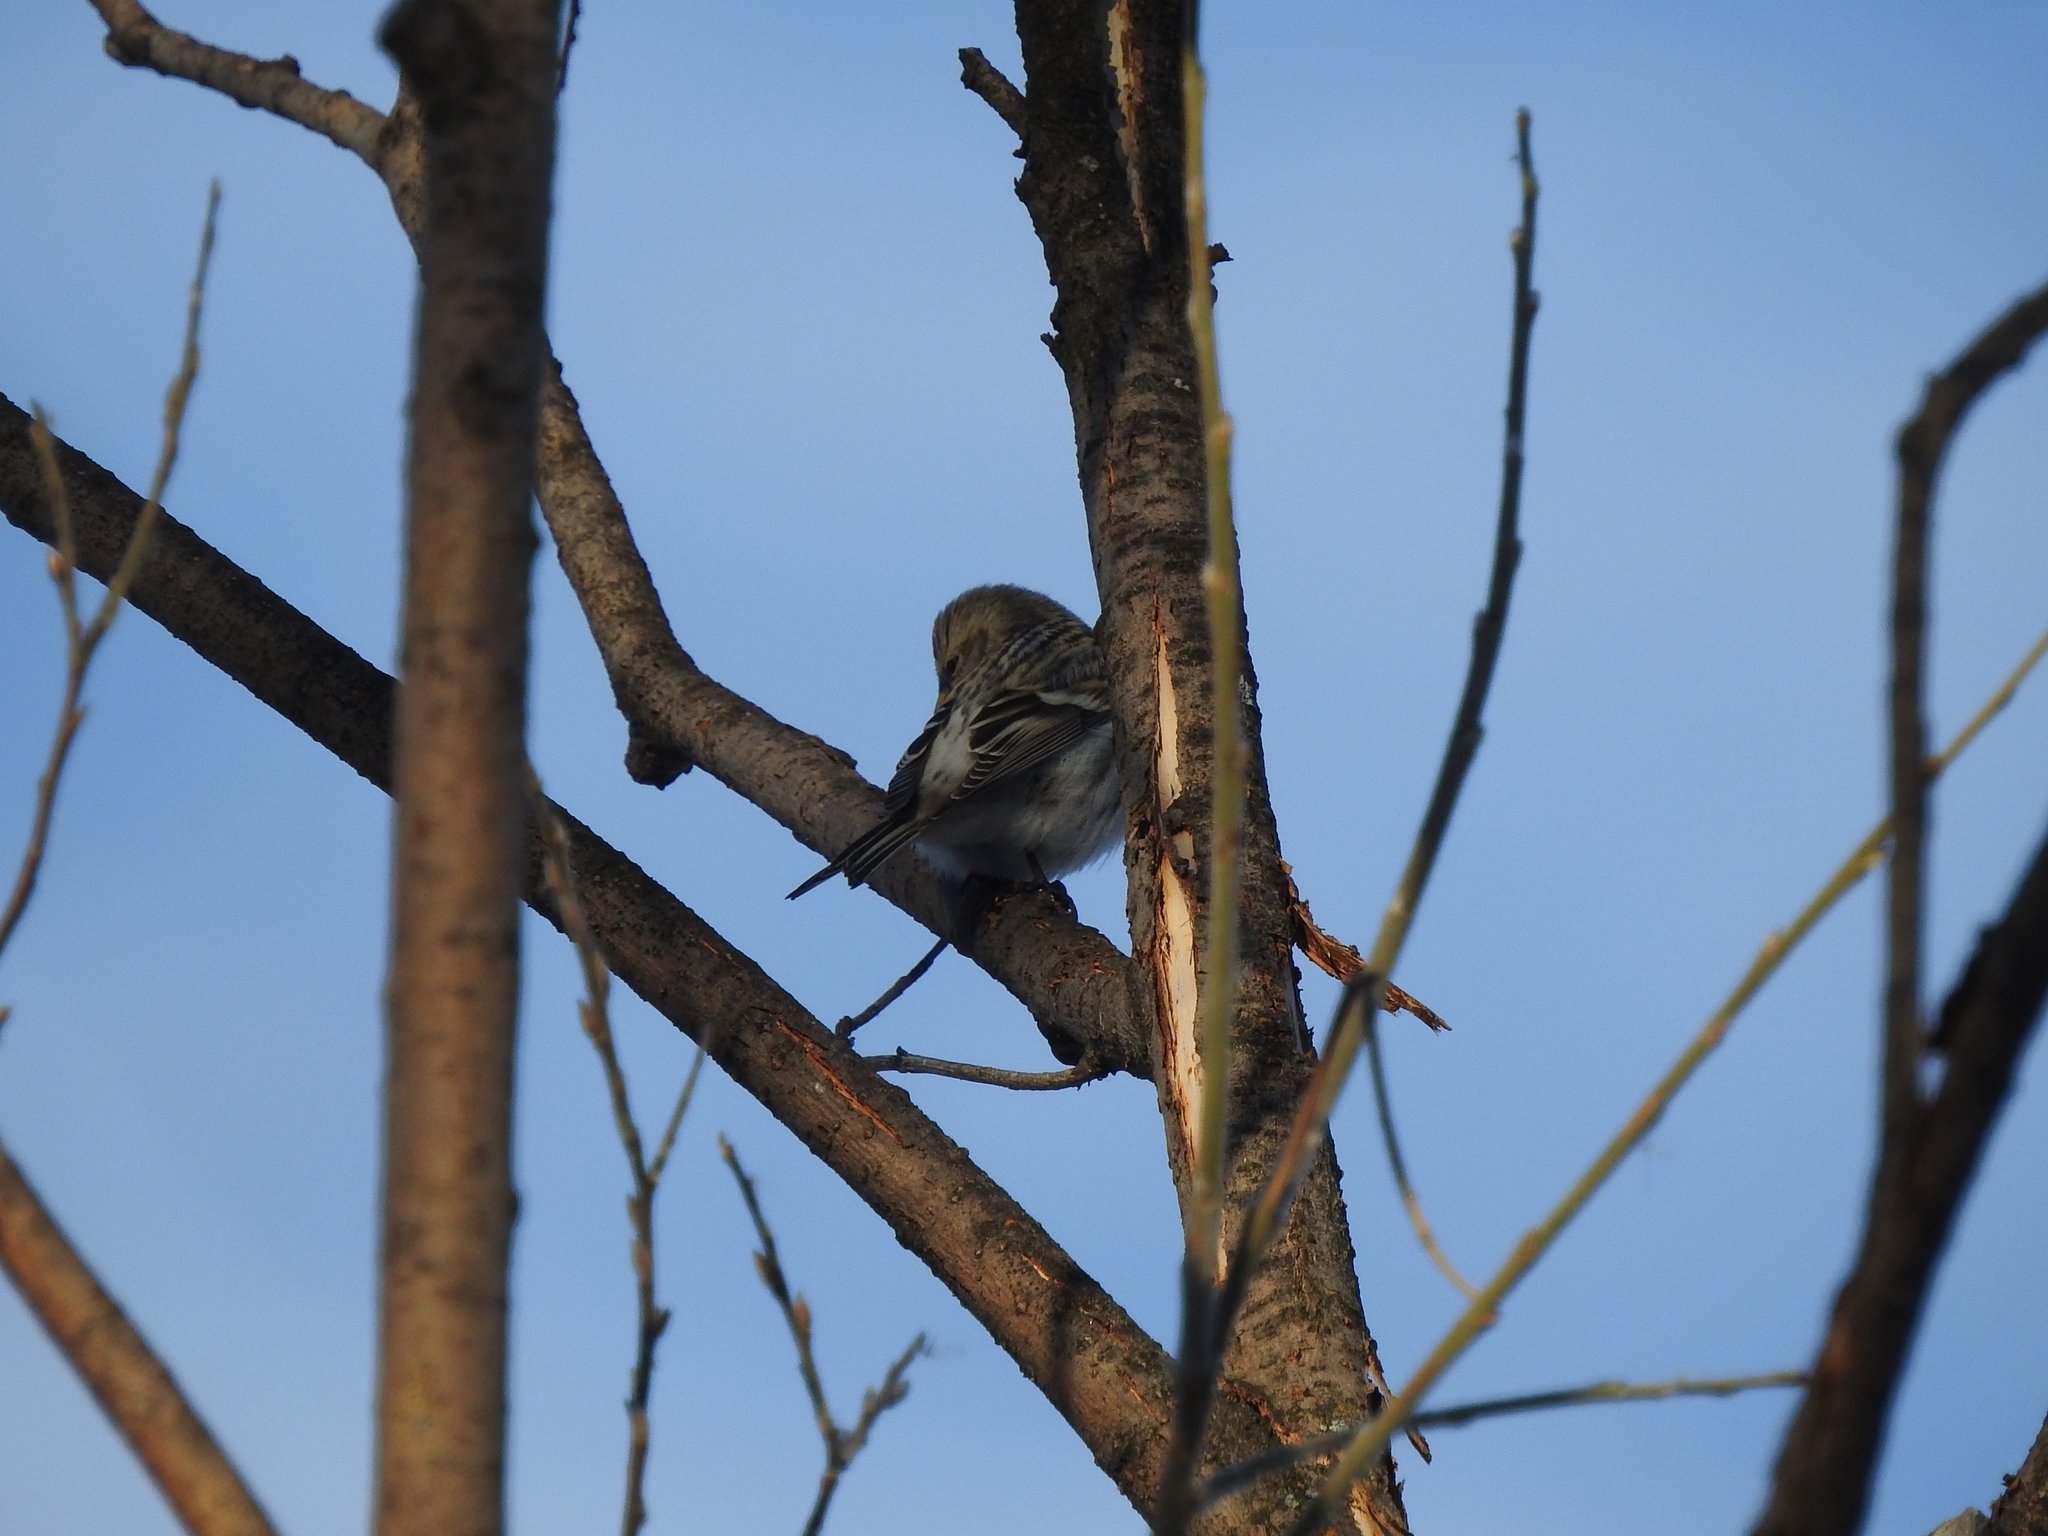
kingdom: Animalia
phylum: Chordata
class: Aves
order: Passeriformes
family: Fringillidae
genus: Acanthis
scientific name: Acanthis flammea
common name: Common redpoll
